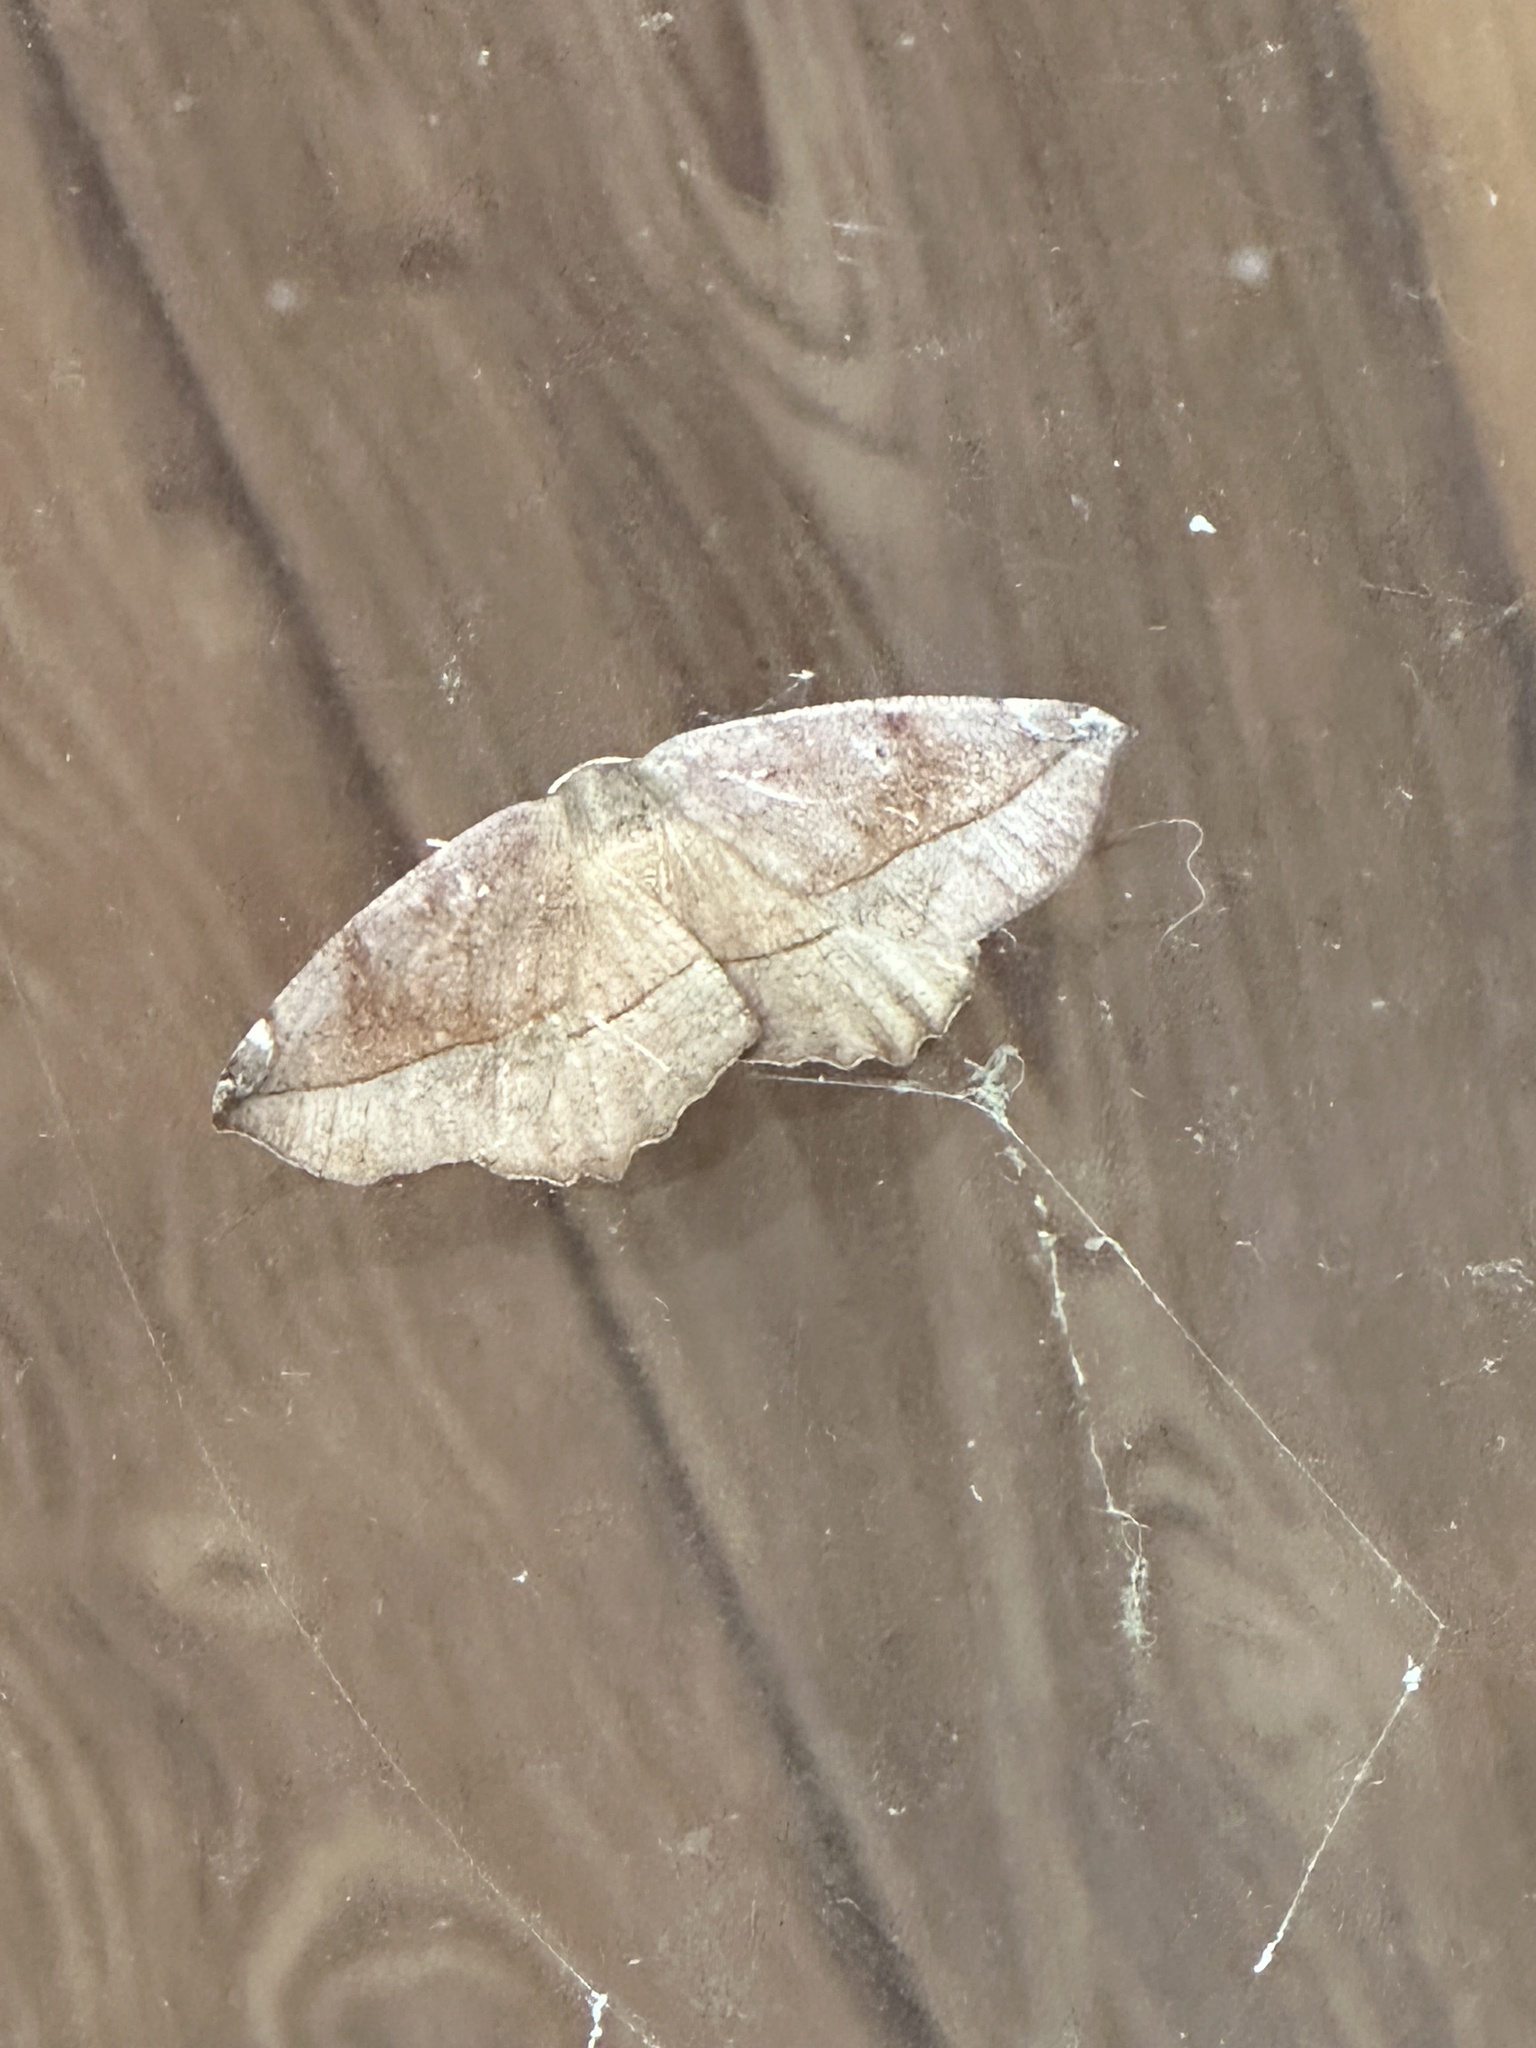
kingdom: Animalia
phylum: Arthropoda
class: Insecta
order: Lepidoptera
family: Geometridae
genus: Eutrapela
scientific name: Eutrapela clemataria
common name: Curved-toothed geometer
